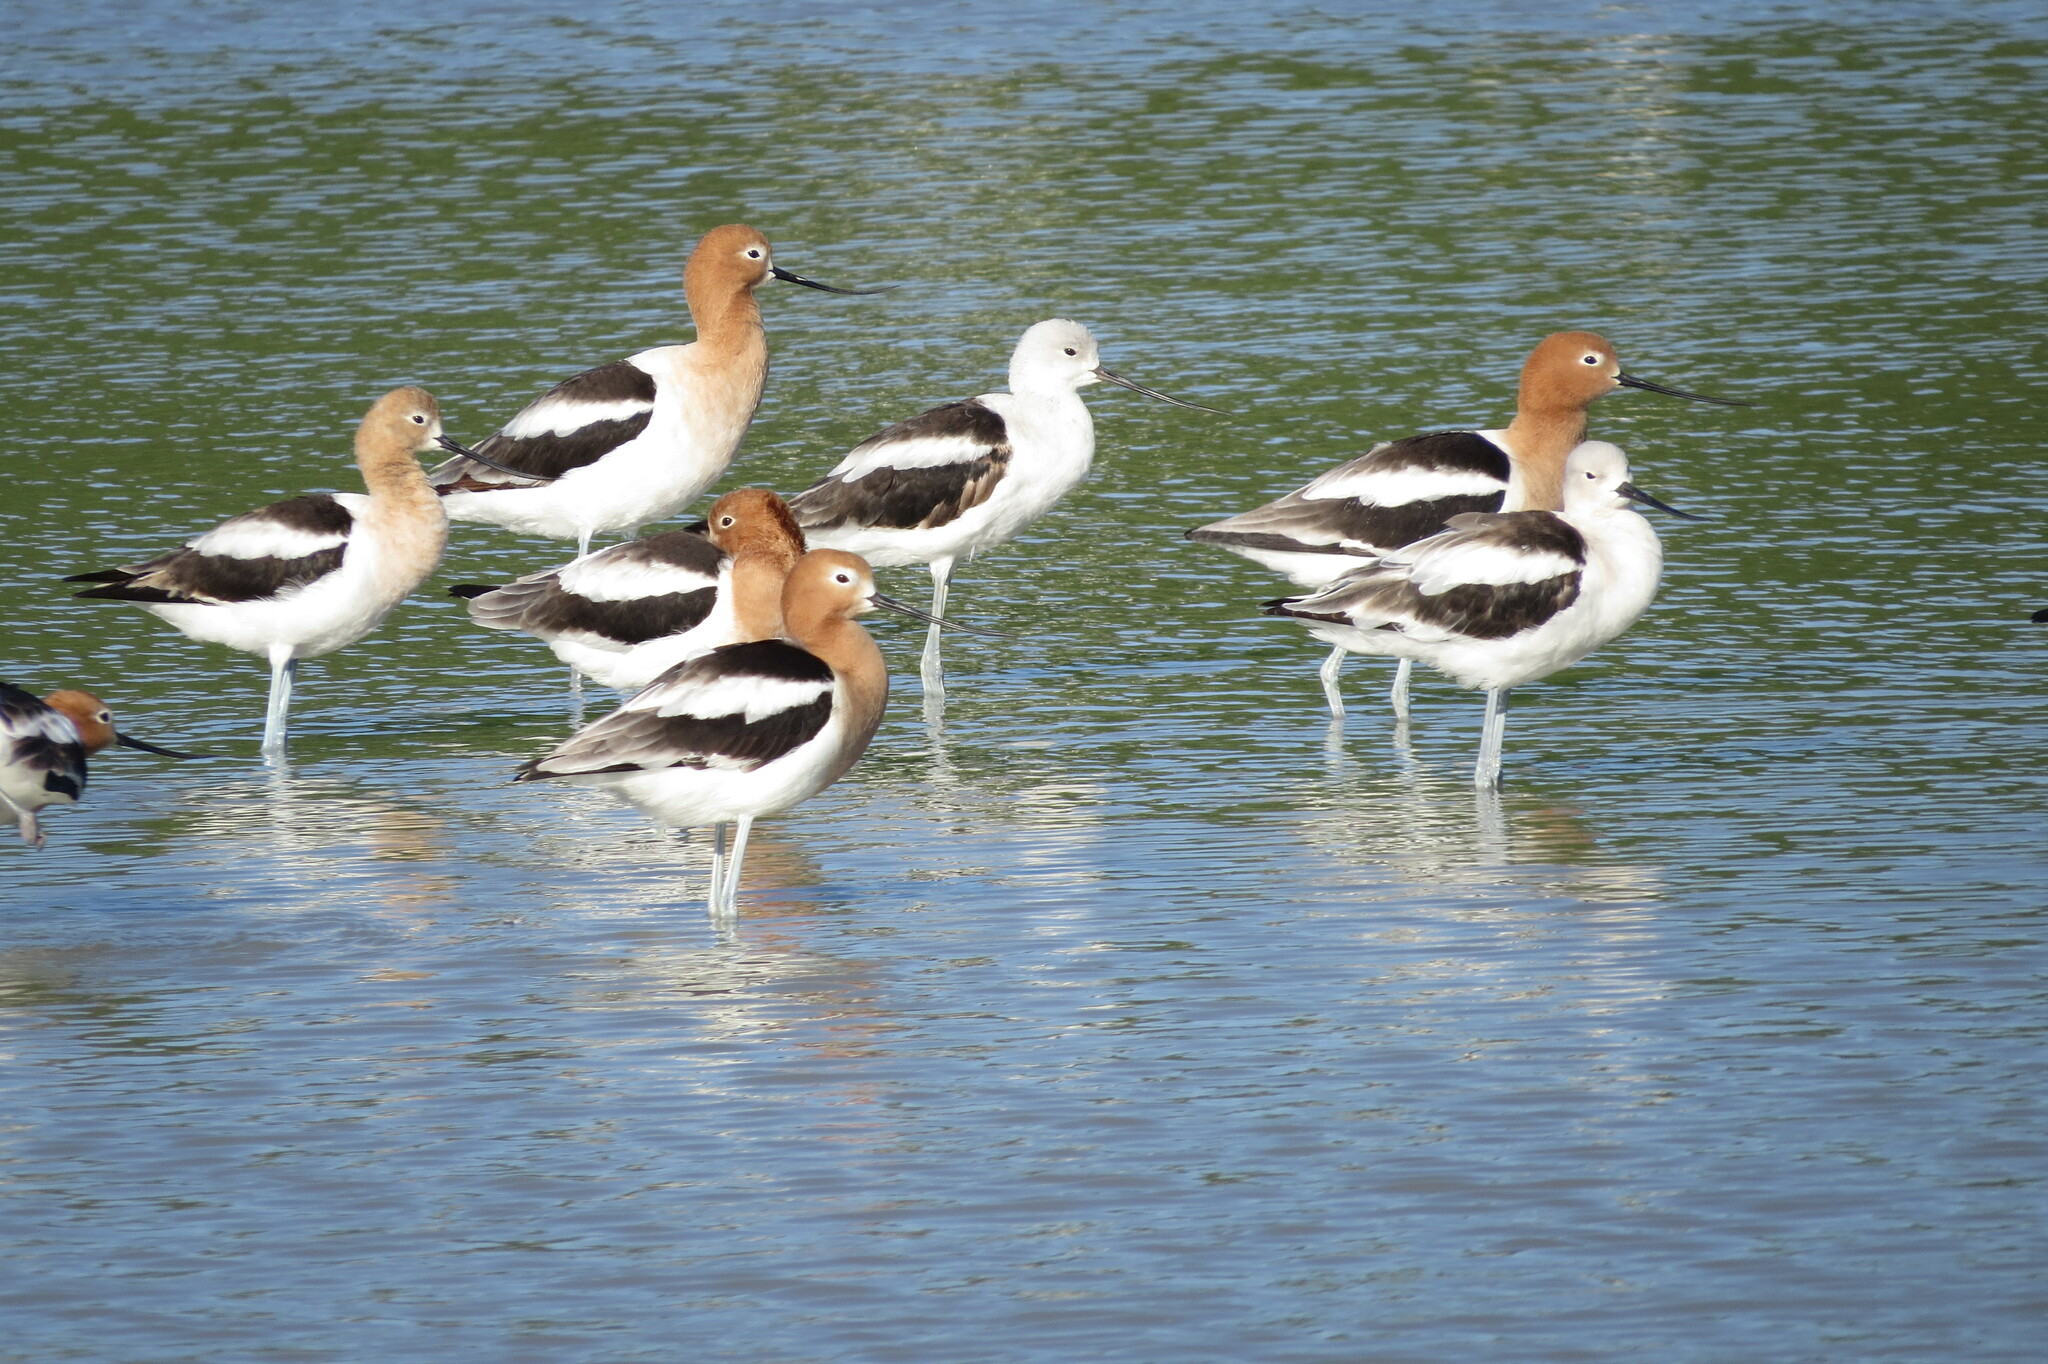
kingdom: Animalia
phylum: Chordata
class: Aves
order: Charadriiformes
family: Recurvirostridae
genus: Recurvirostra
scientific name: Recurvirostra americana
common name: American avocet
